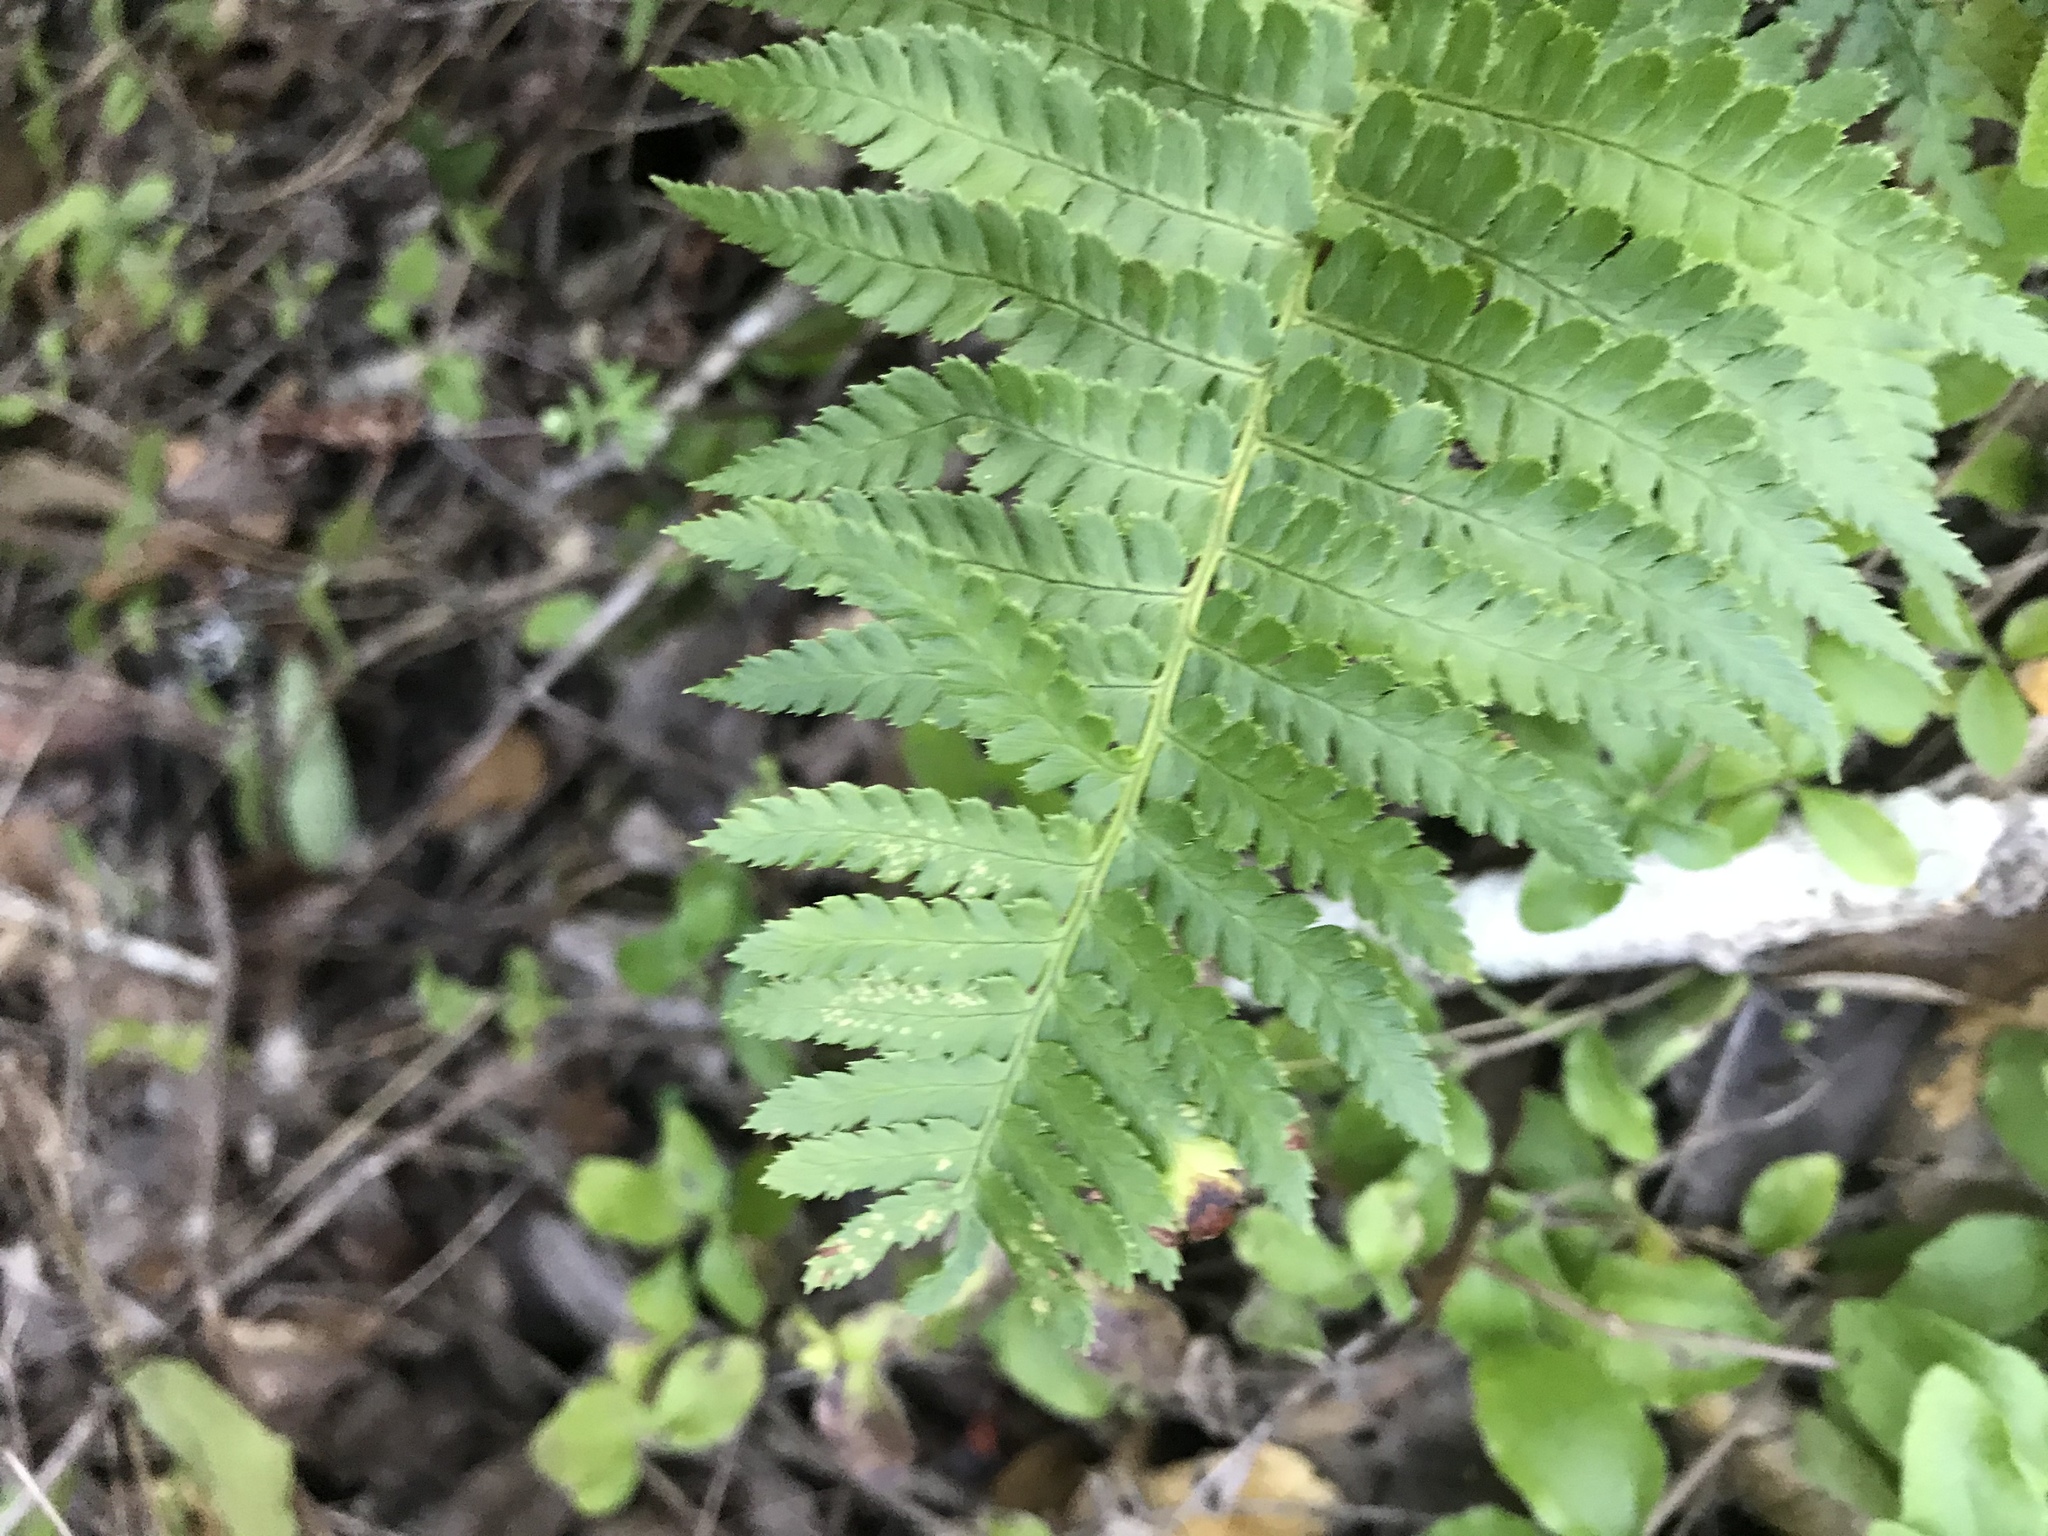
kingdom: Plantae
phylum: Tracheophyta
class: Polypodiopsida
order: Polypodiales
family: Dryopteridaceae
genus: Dryopteris
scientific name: Dryopteris arguta
